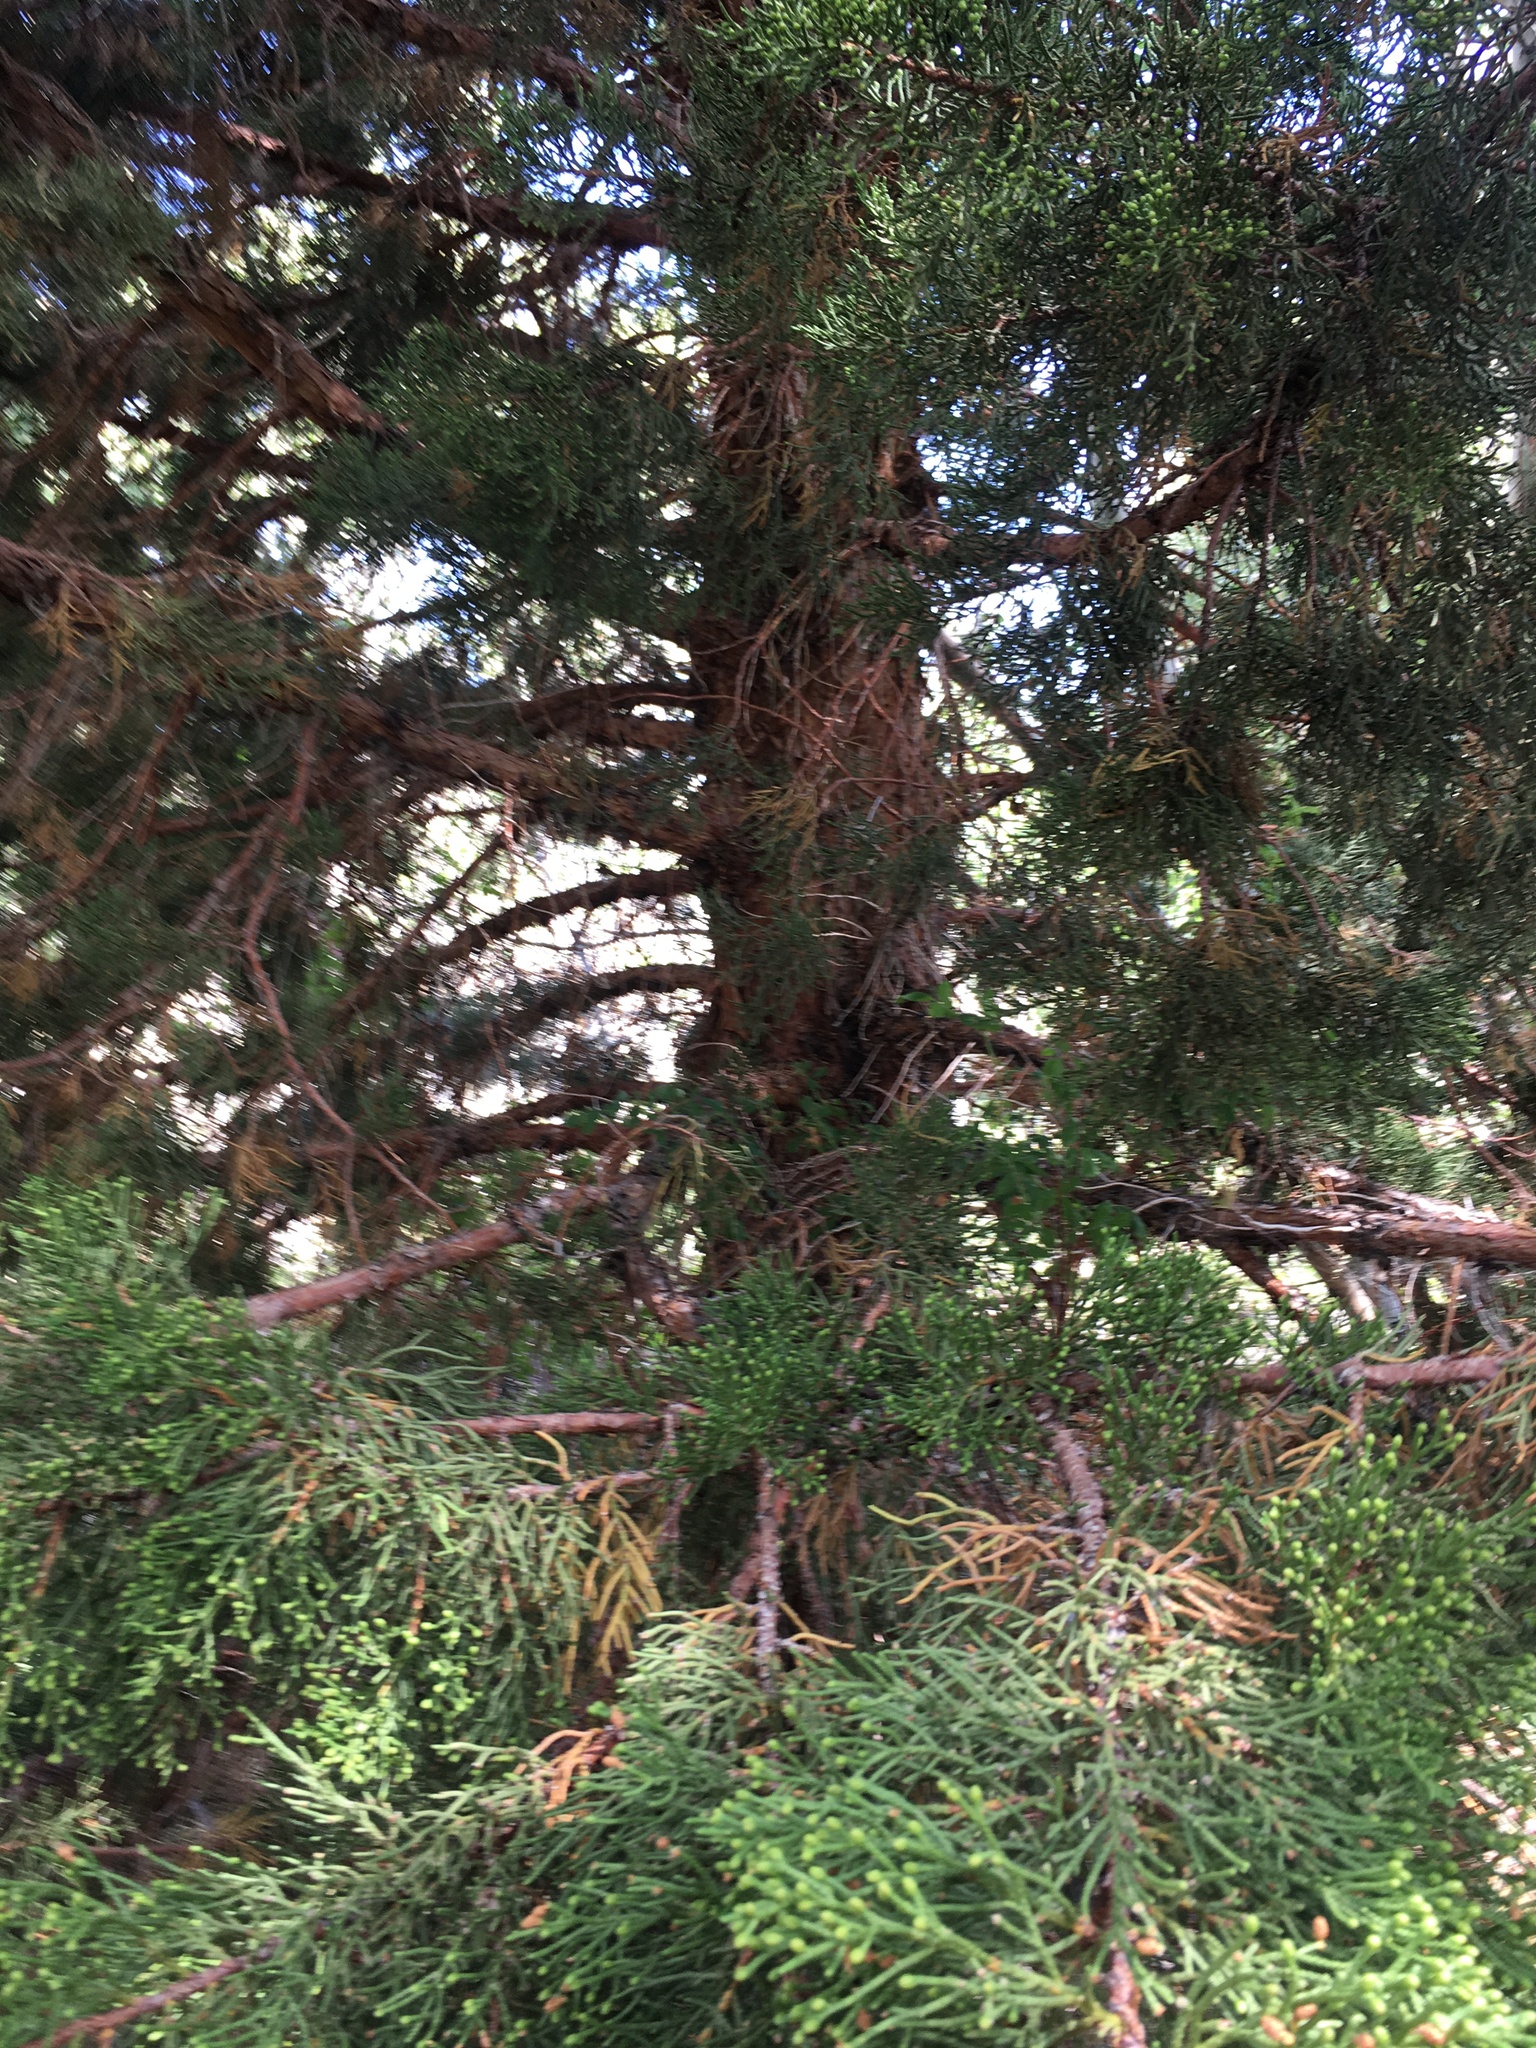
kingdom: Plantae
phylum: Tracheophyta
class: Pinopsida
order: Pinales
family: Cupressaceae
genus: Juniperus
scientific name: Juniperus occidentalis
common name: Western juniper
